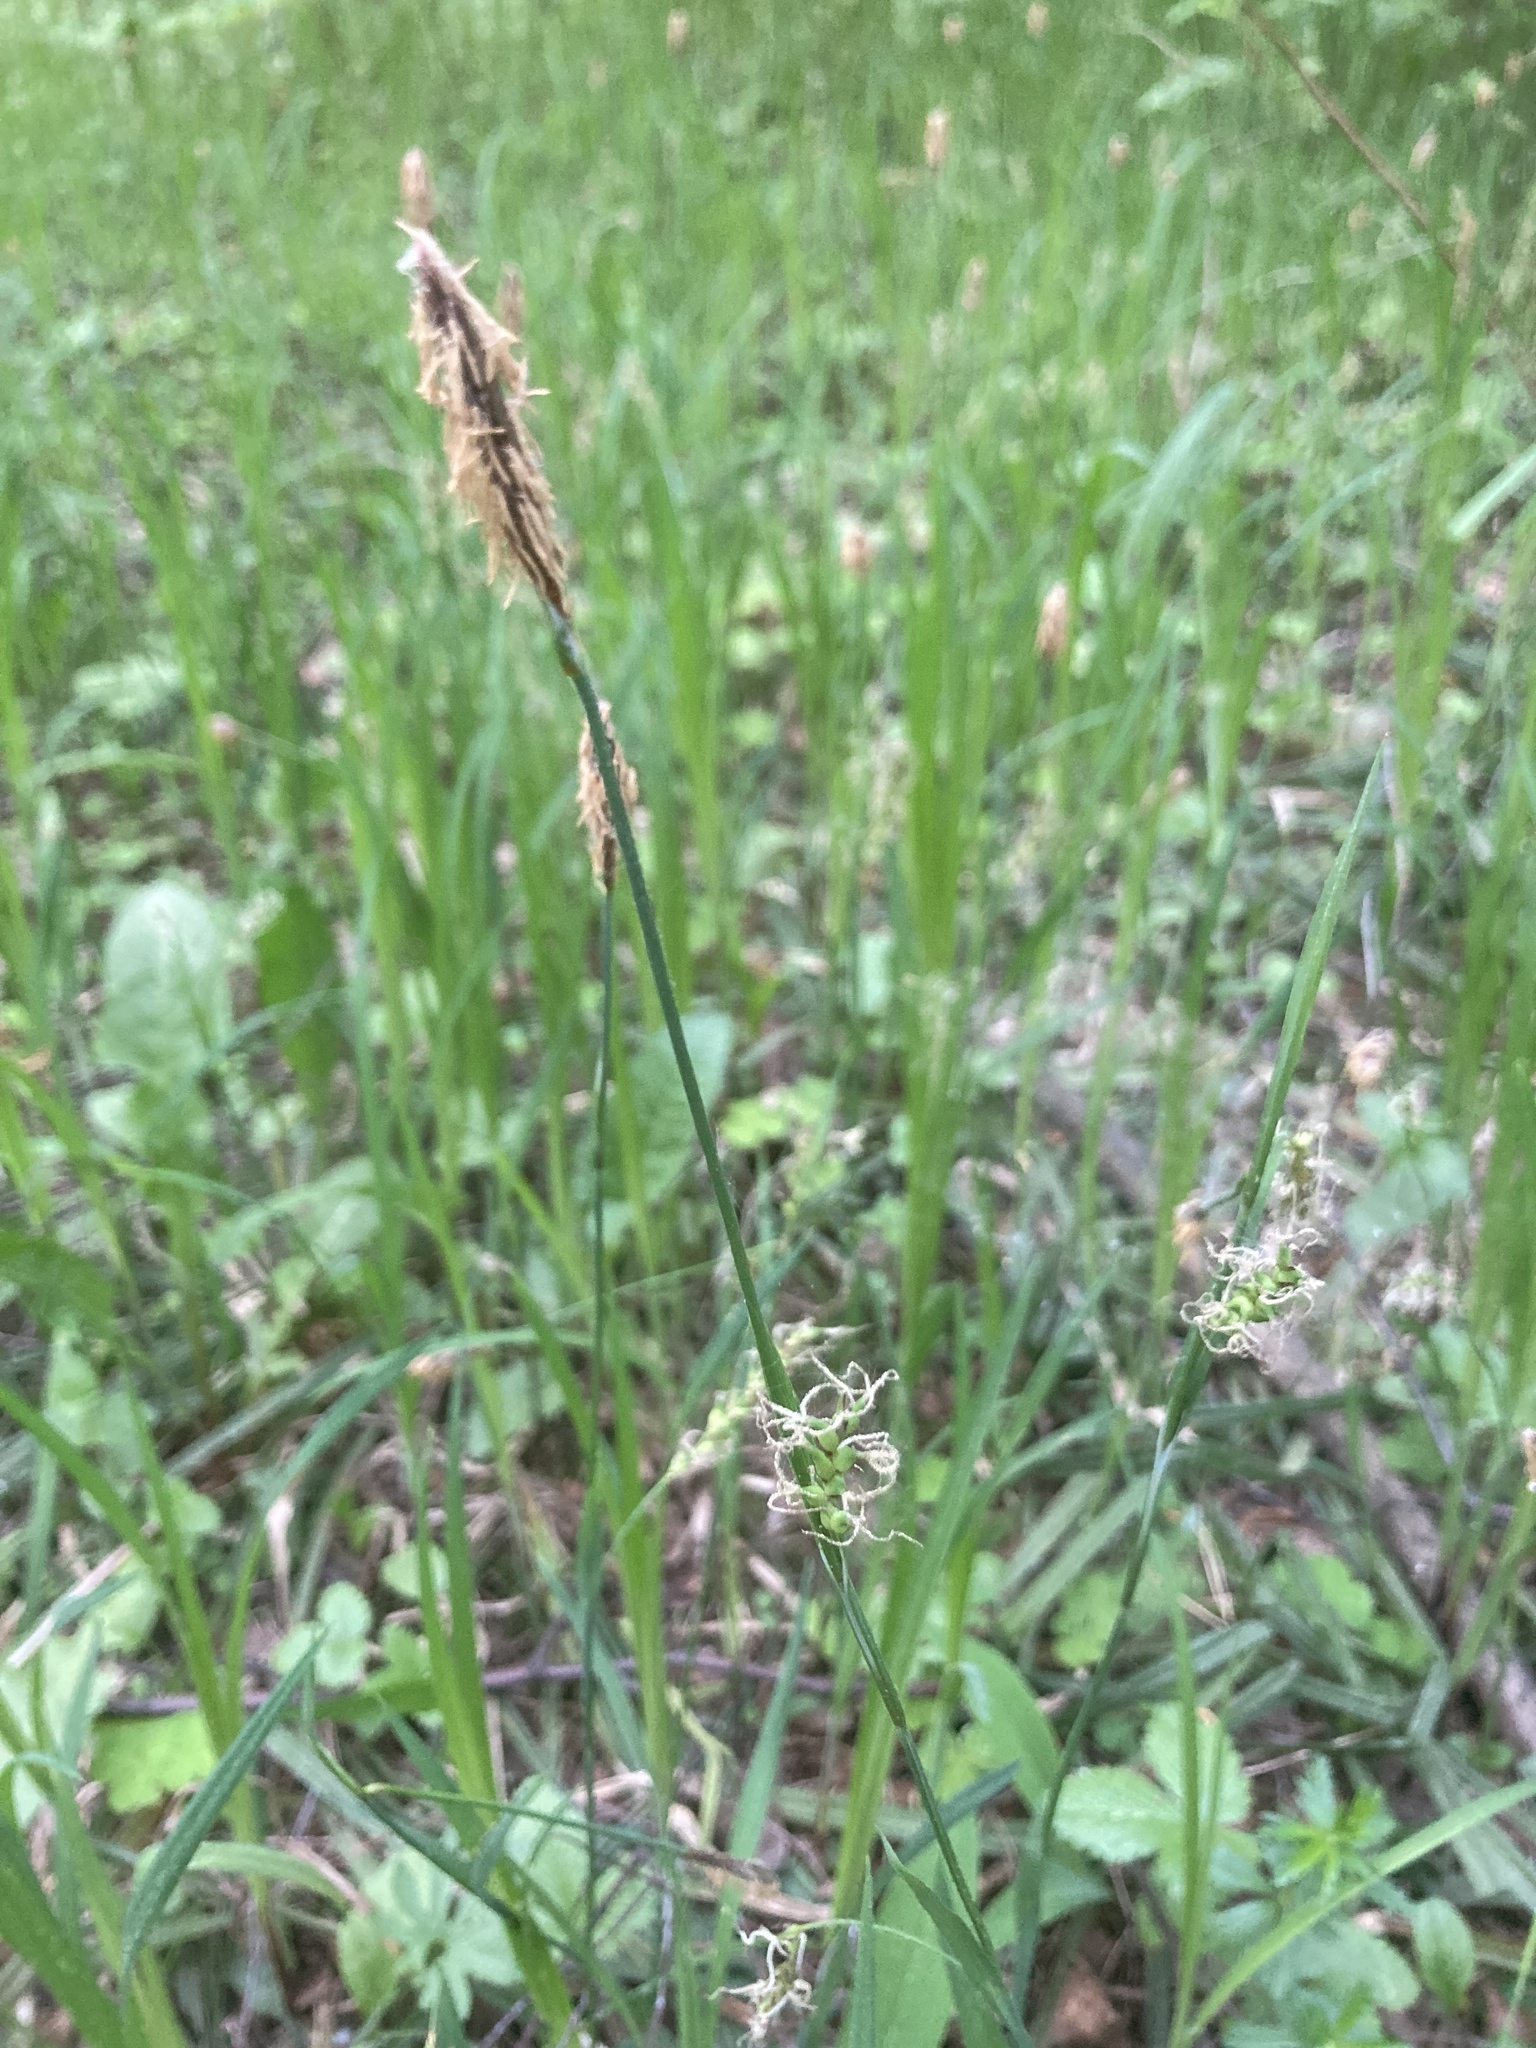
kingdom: Plantae
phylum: Tracheophyta
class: Liliopsida
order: Poales
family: Cyperaceae
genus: Carex
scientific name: Carex pilosa
